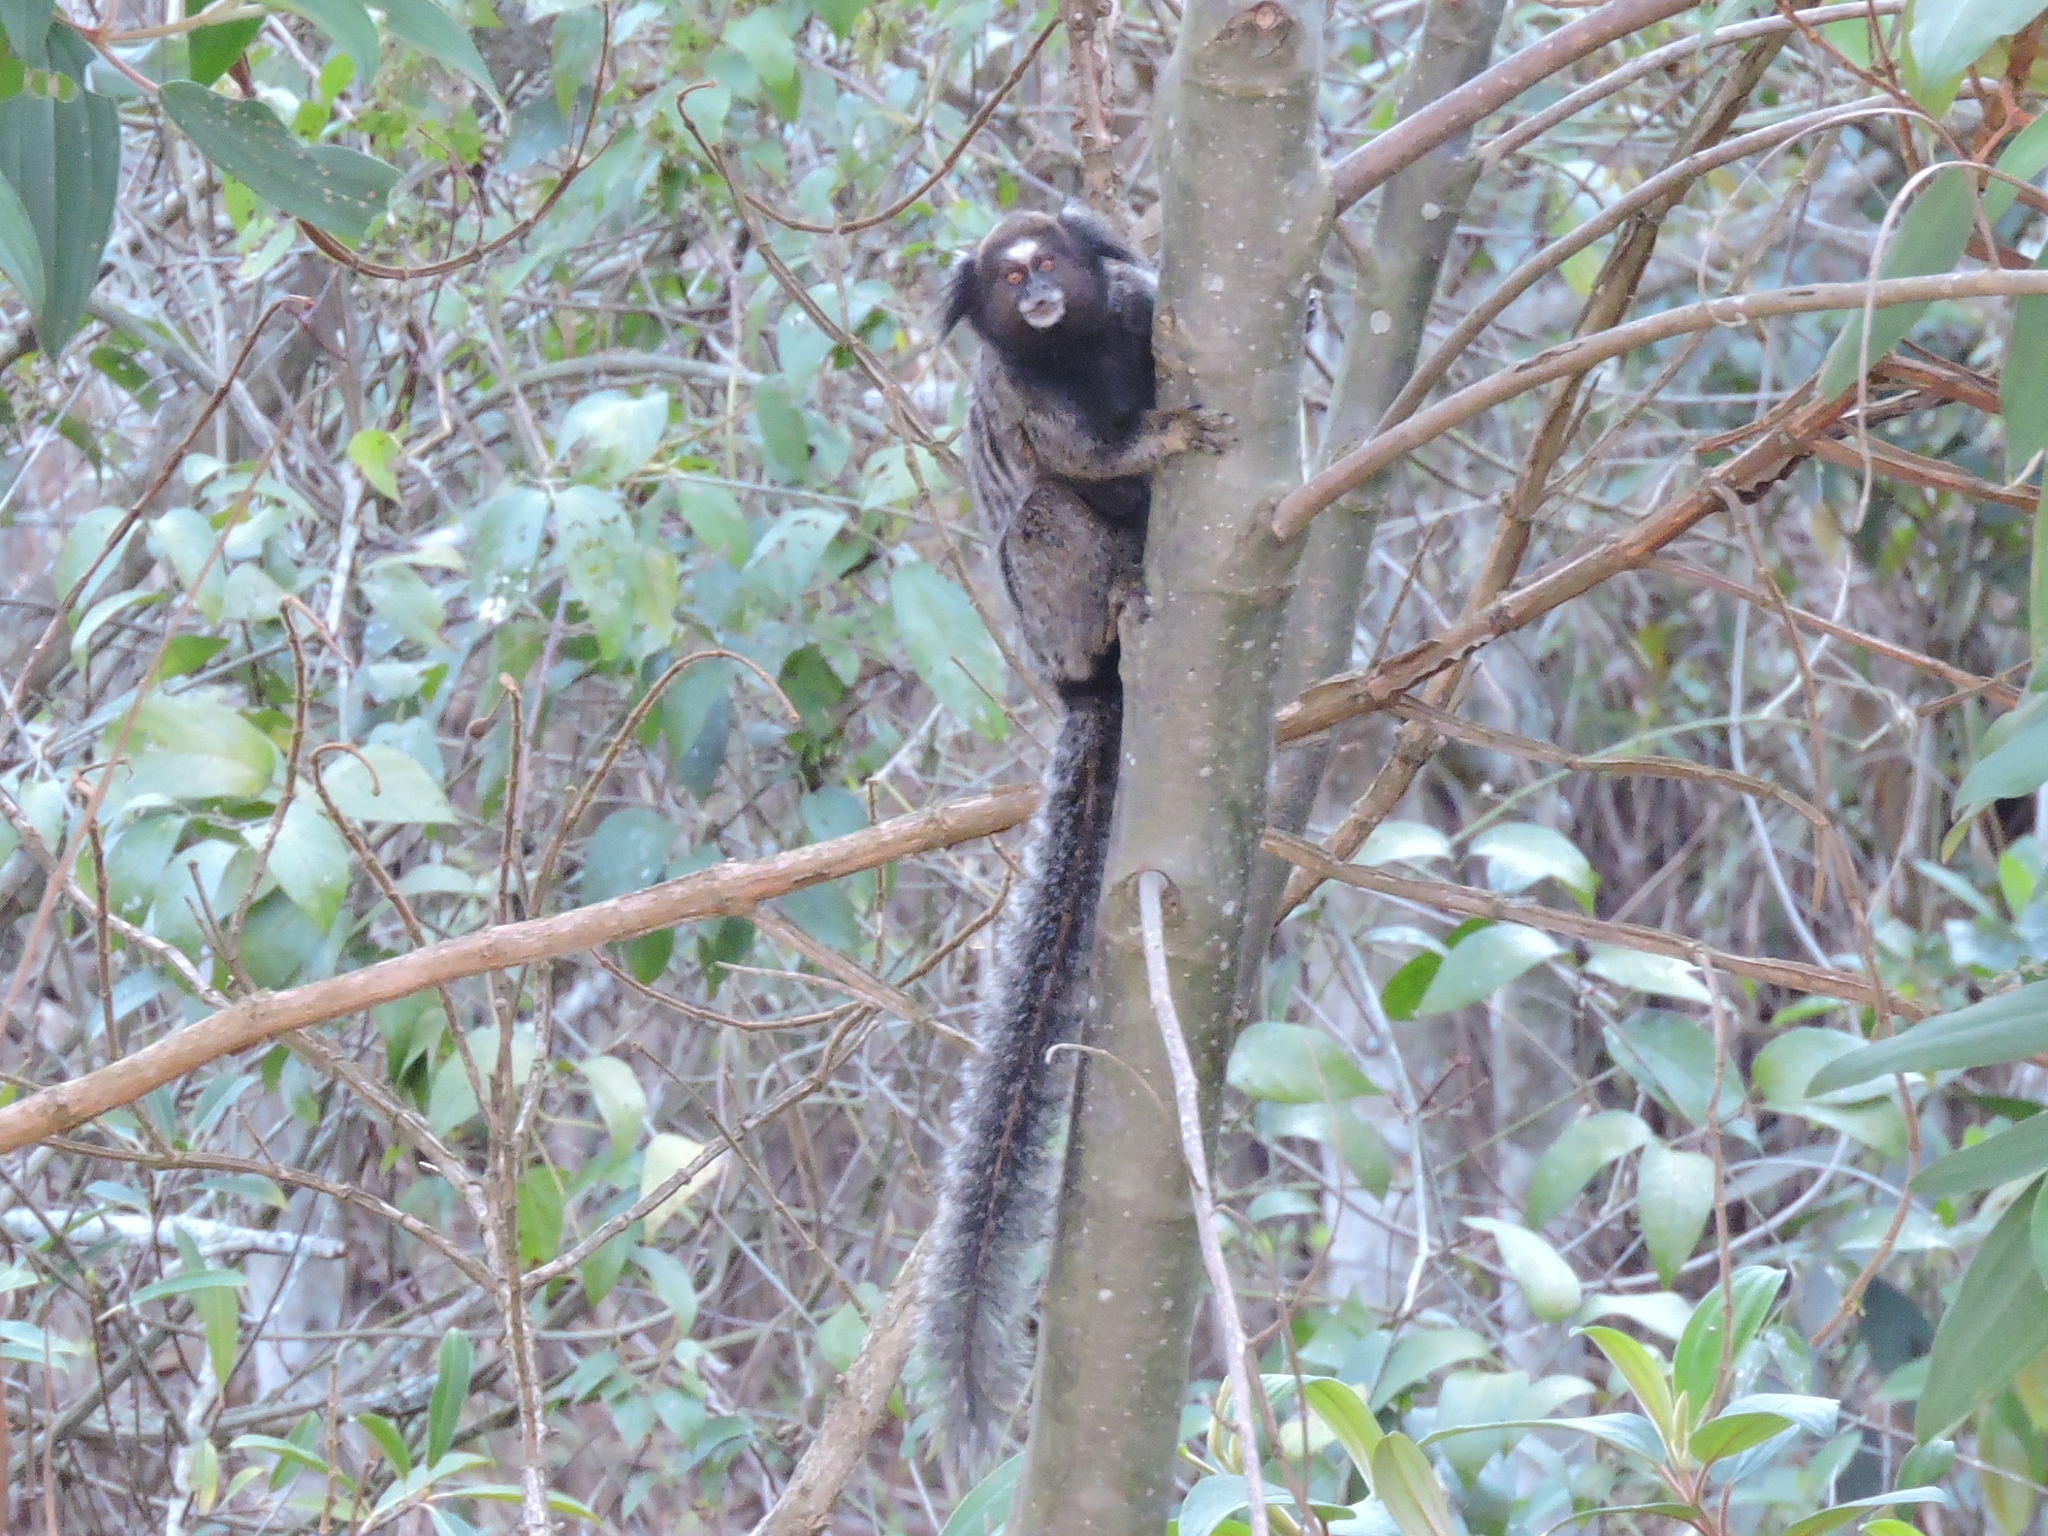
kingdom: Animalia
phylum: Chordata
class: Mammalia
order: Primates
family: Callitrichidae
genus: Callithrix
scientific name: Callithrix penicillata
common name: Black-tufted marmoset
